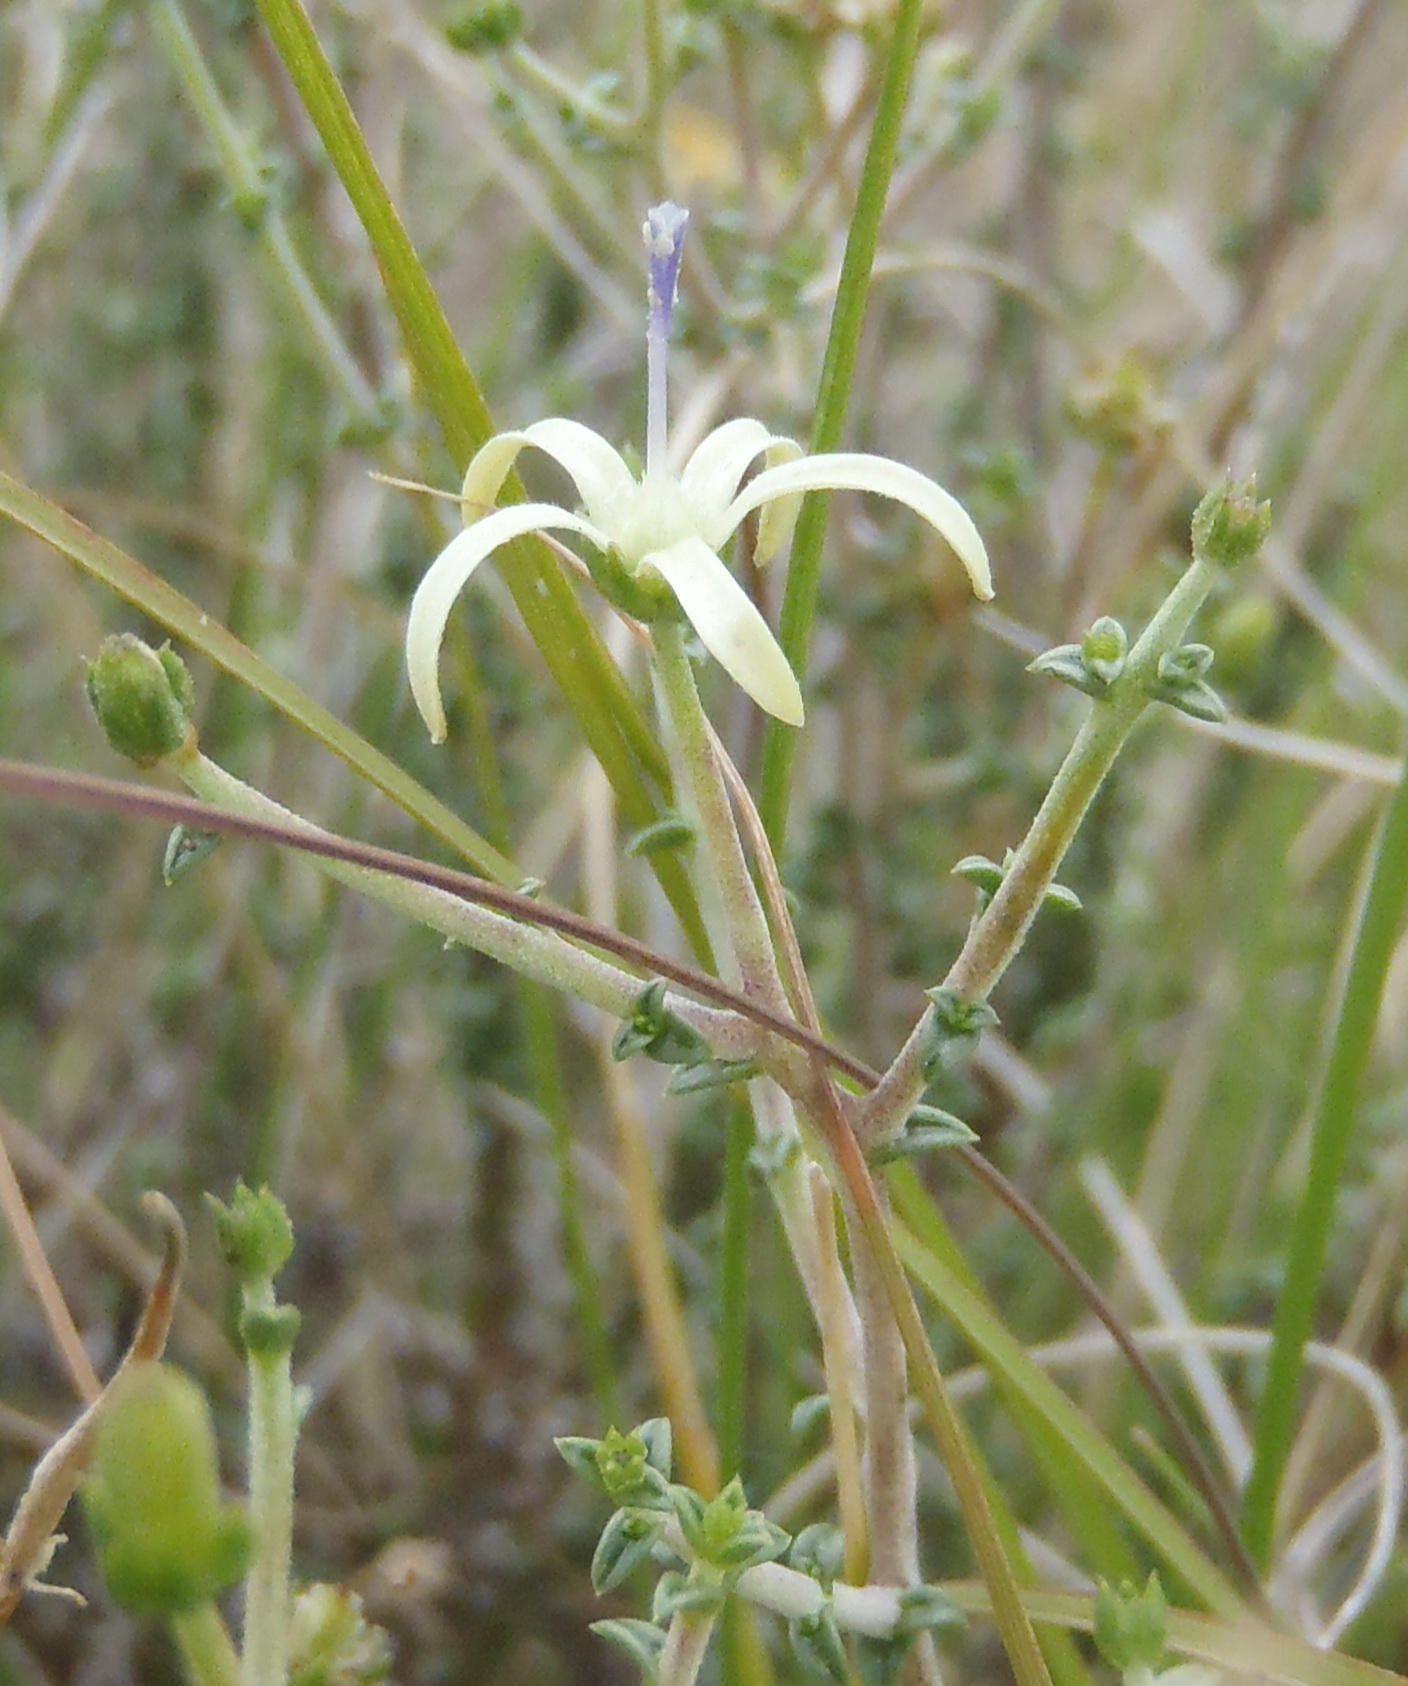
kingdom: Plantae
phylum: Tracheophyta
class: Magnoliopsida
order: Asterales
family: Campanulaceae
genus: Wahlenbergia
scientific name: Wahlenbergia nodosa
